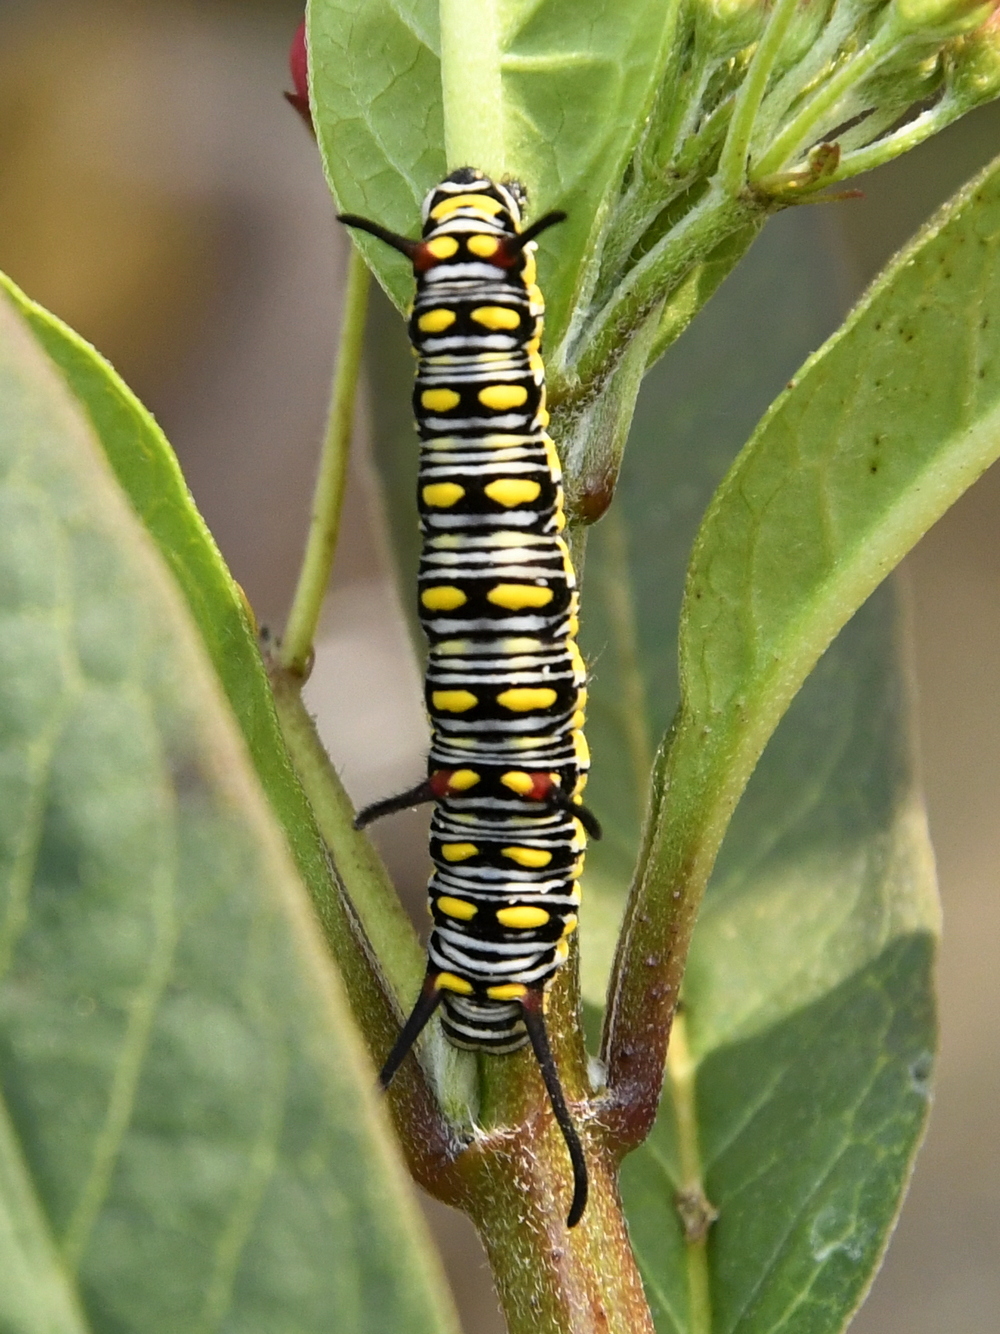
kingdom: Animalia
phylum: Arthropoda
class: Insecta
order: Lepidoptera
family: Nymphalidae
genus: Danaus
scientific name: Danaus chrysippus
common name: Plain tiger
